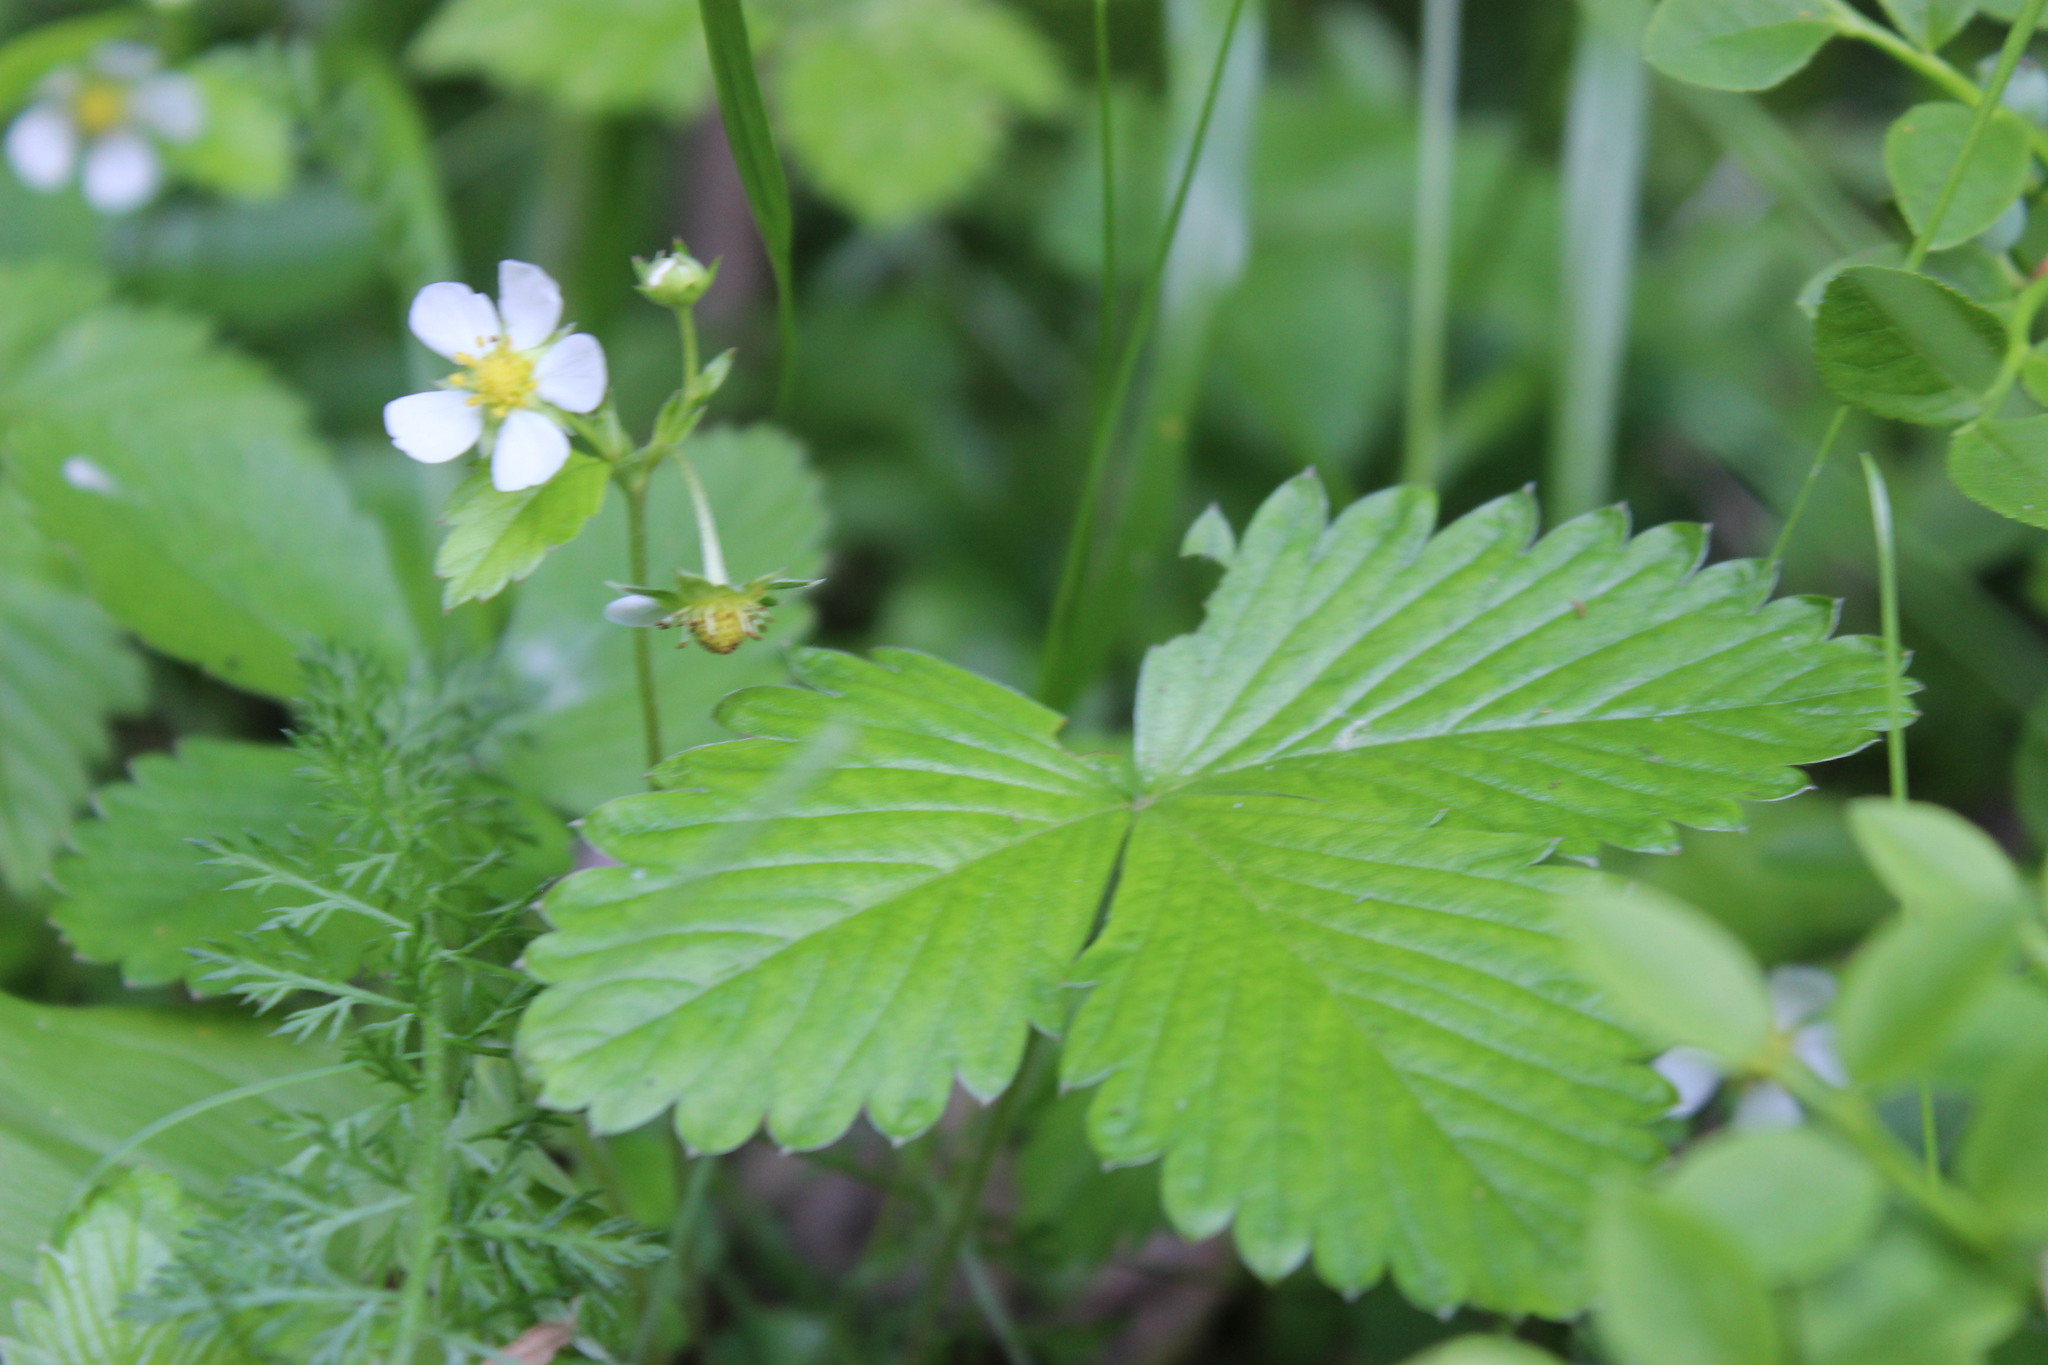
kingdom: Plantae
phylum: Tracheophyta
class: Magnoliopsida
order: Rosales
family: Rosaceae
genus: Fragaria
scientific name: Fragaria vesca
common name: Wild strawberry
